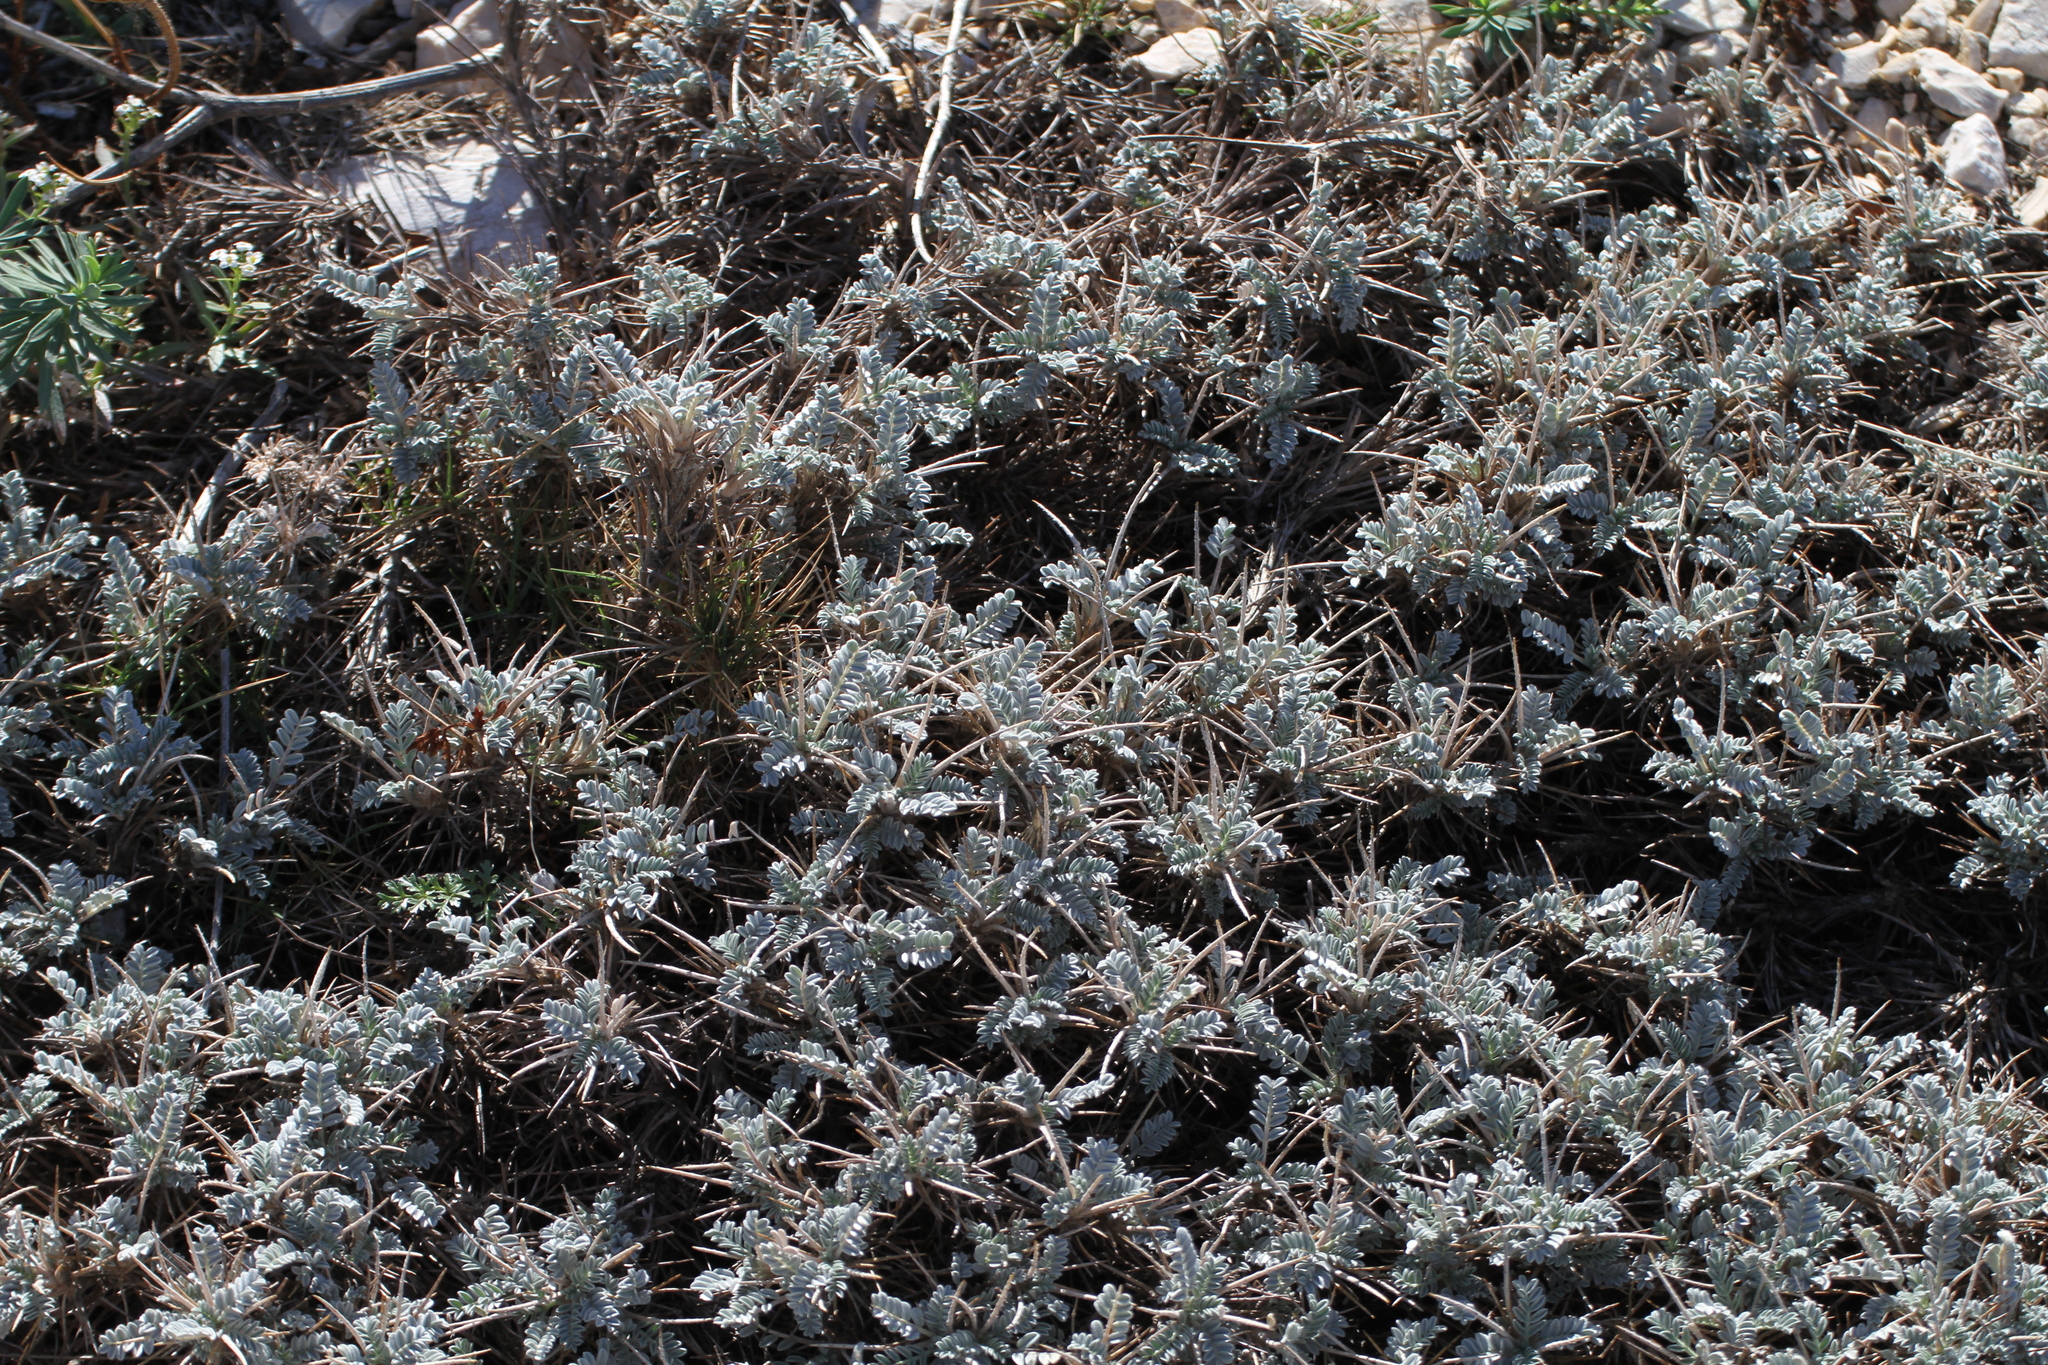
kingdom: Plantae
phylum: Tracheophyta
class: Magnoliopsida
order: Fabales
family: Fabaceae
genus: Astragalus
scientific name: Astragalus tragacantha
